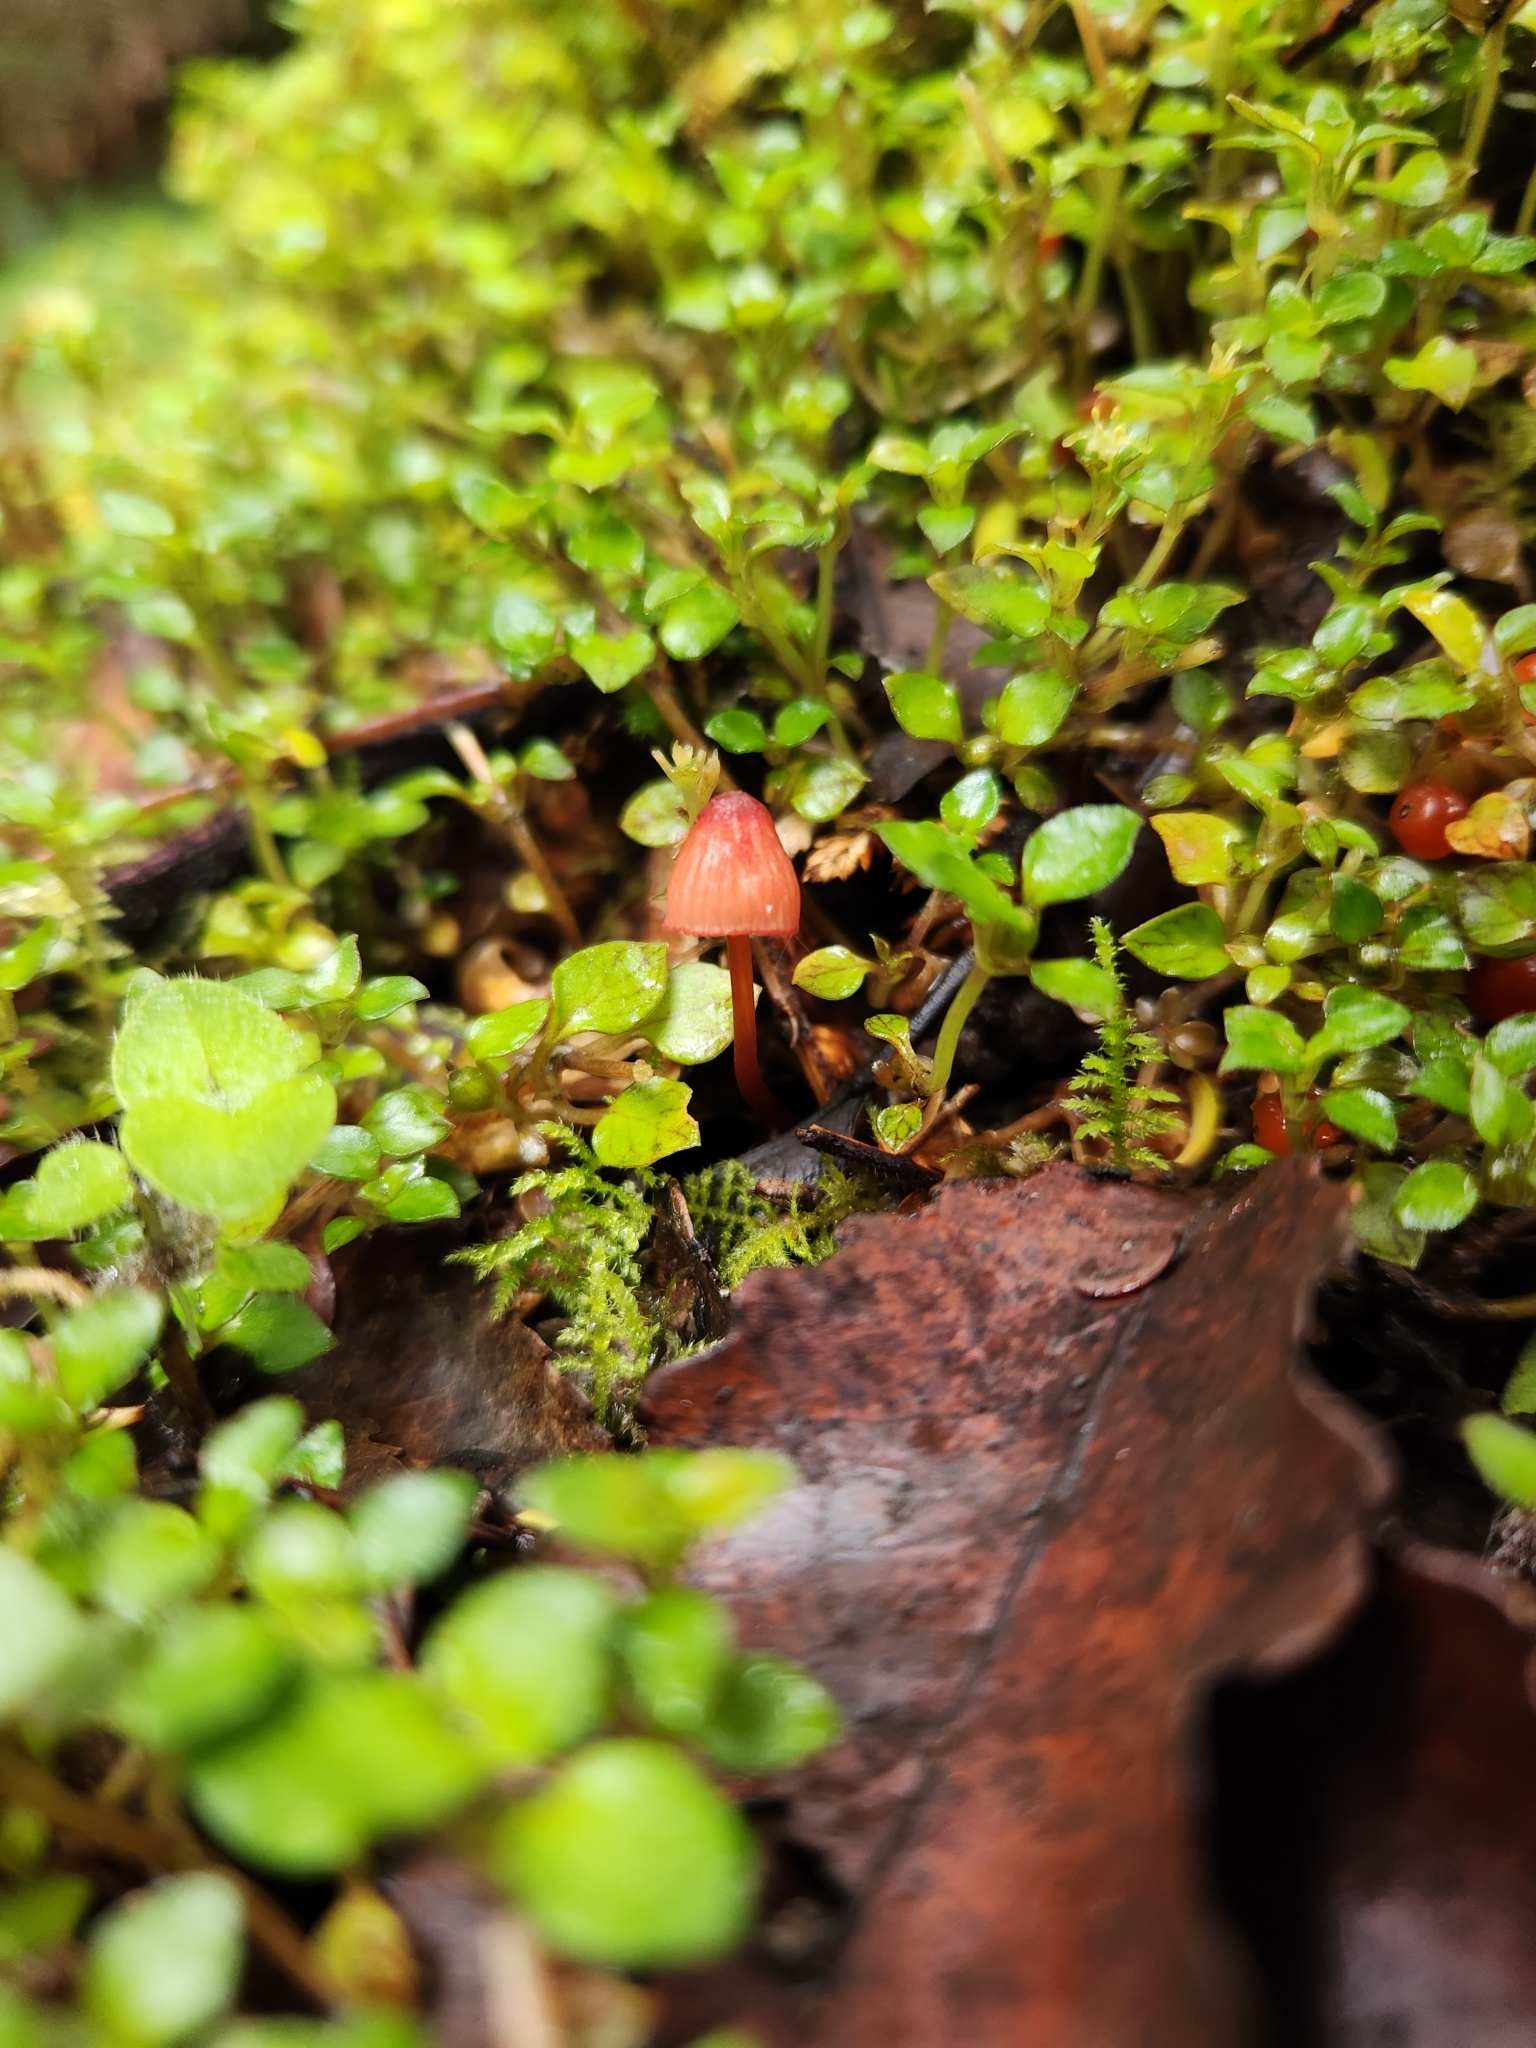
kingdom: Fungi
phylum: Basidiomycota
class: Agaricomycetes
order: Agaricales
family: Mycenaceae
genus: Mycena
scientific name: Mycena ura
